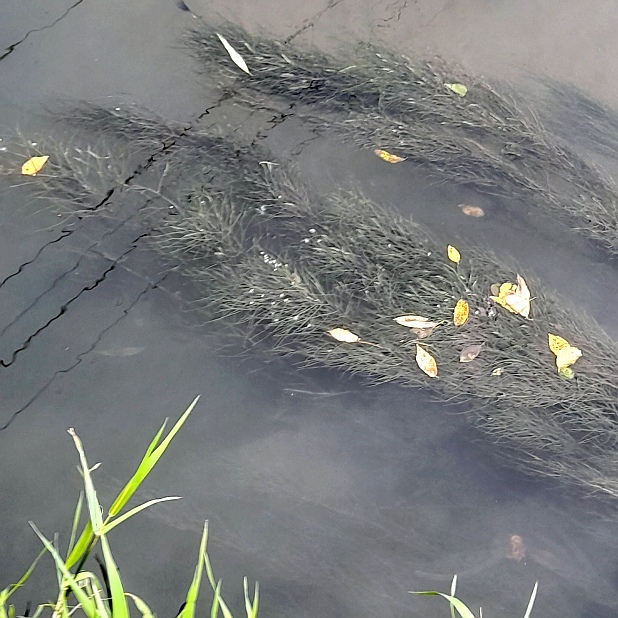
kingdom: Plantae
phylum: Tracheophyta
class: Liliopsida
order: Alismatales
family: Potamogetonaceae
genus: Stuckenia
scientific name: Stuckenia pectinata
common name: Sago pondweed
